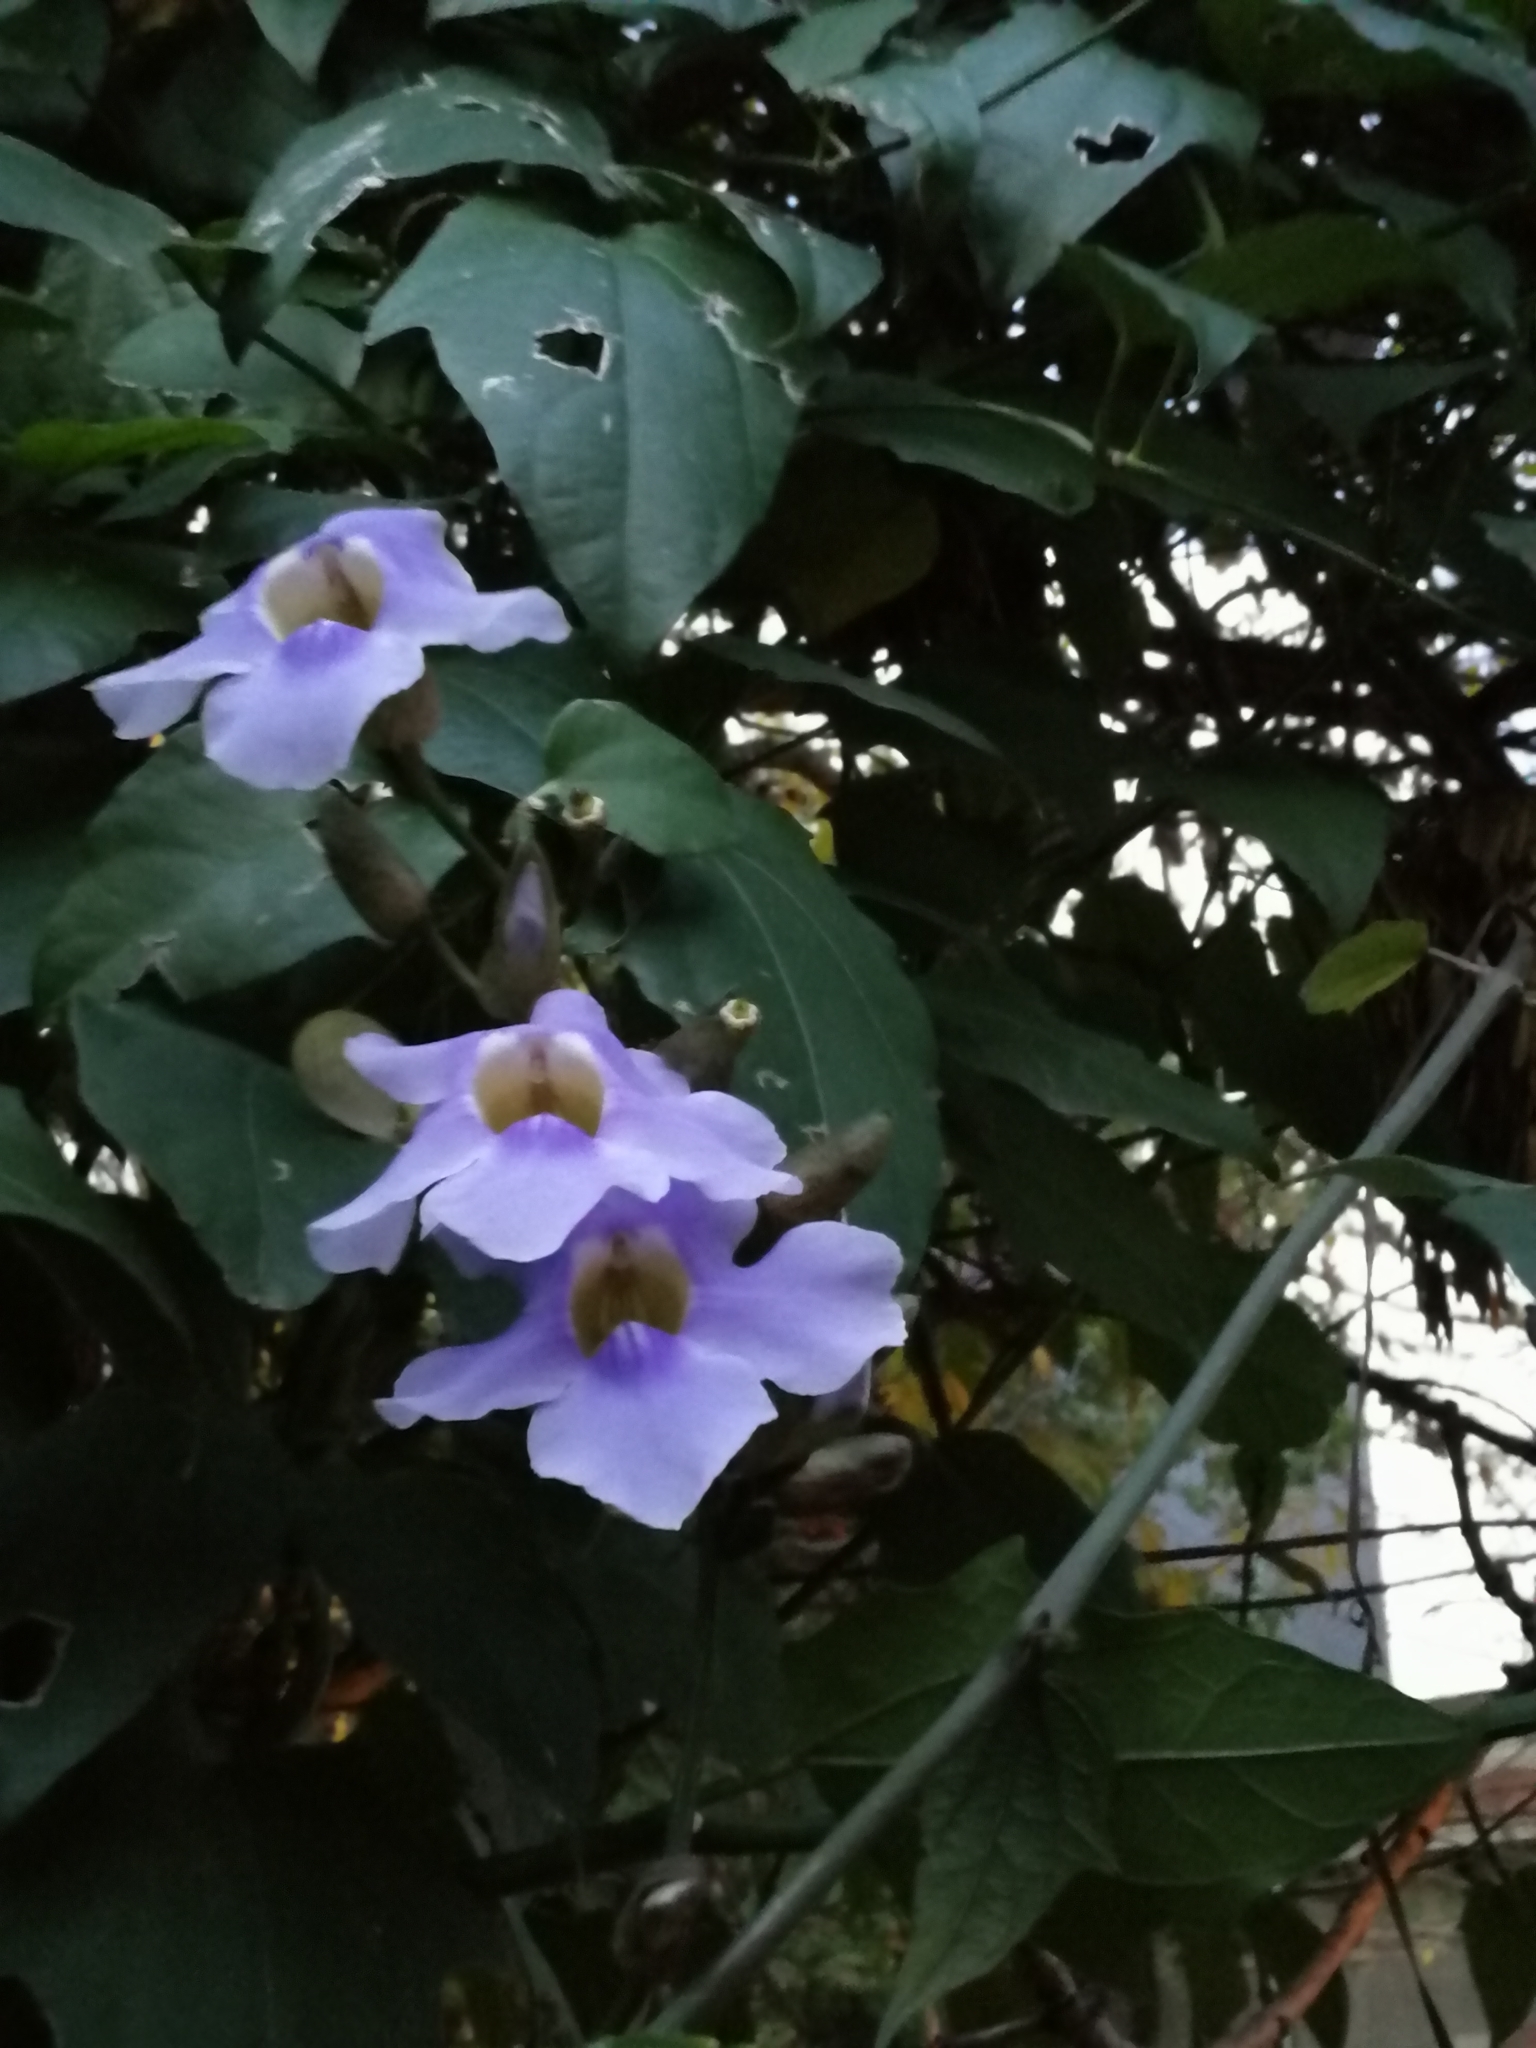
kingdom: Plantae
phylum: Tracheophyta
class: Magnoliopsida
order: Lamiales
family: Acanthaceae
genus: Thunbergia
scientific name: Thunbergia grandiflora
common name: Bengal trumpet
